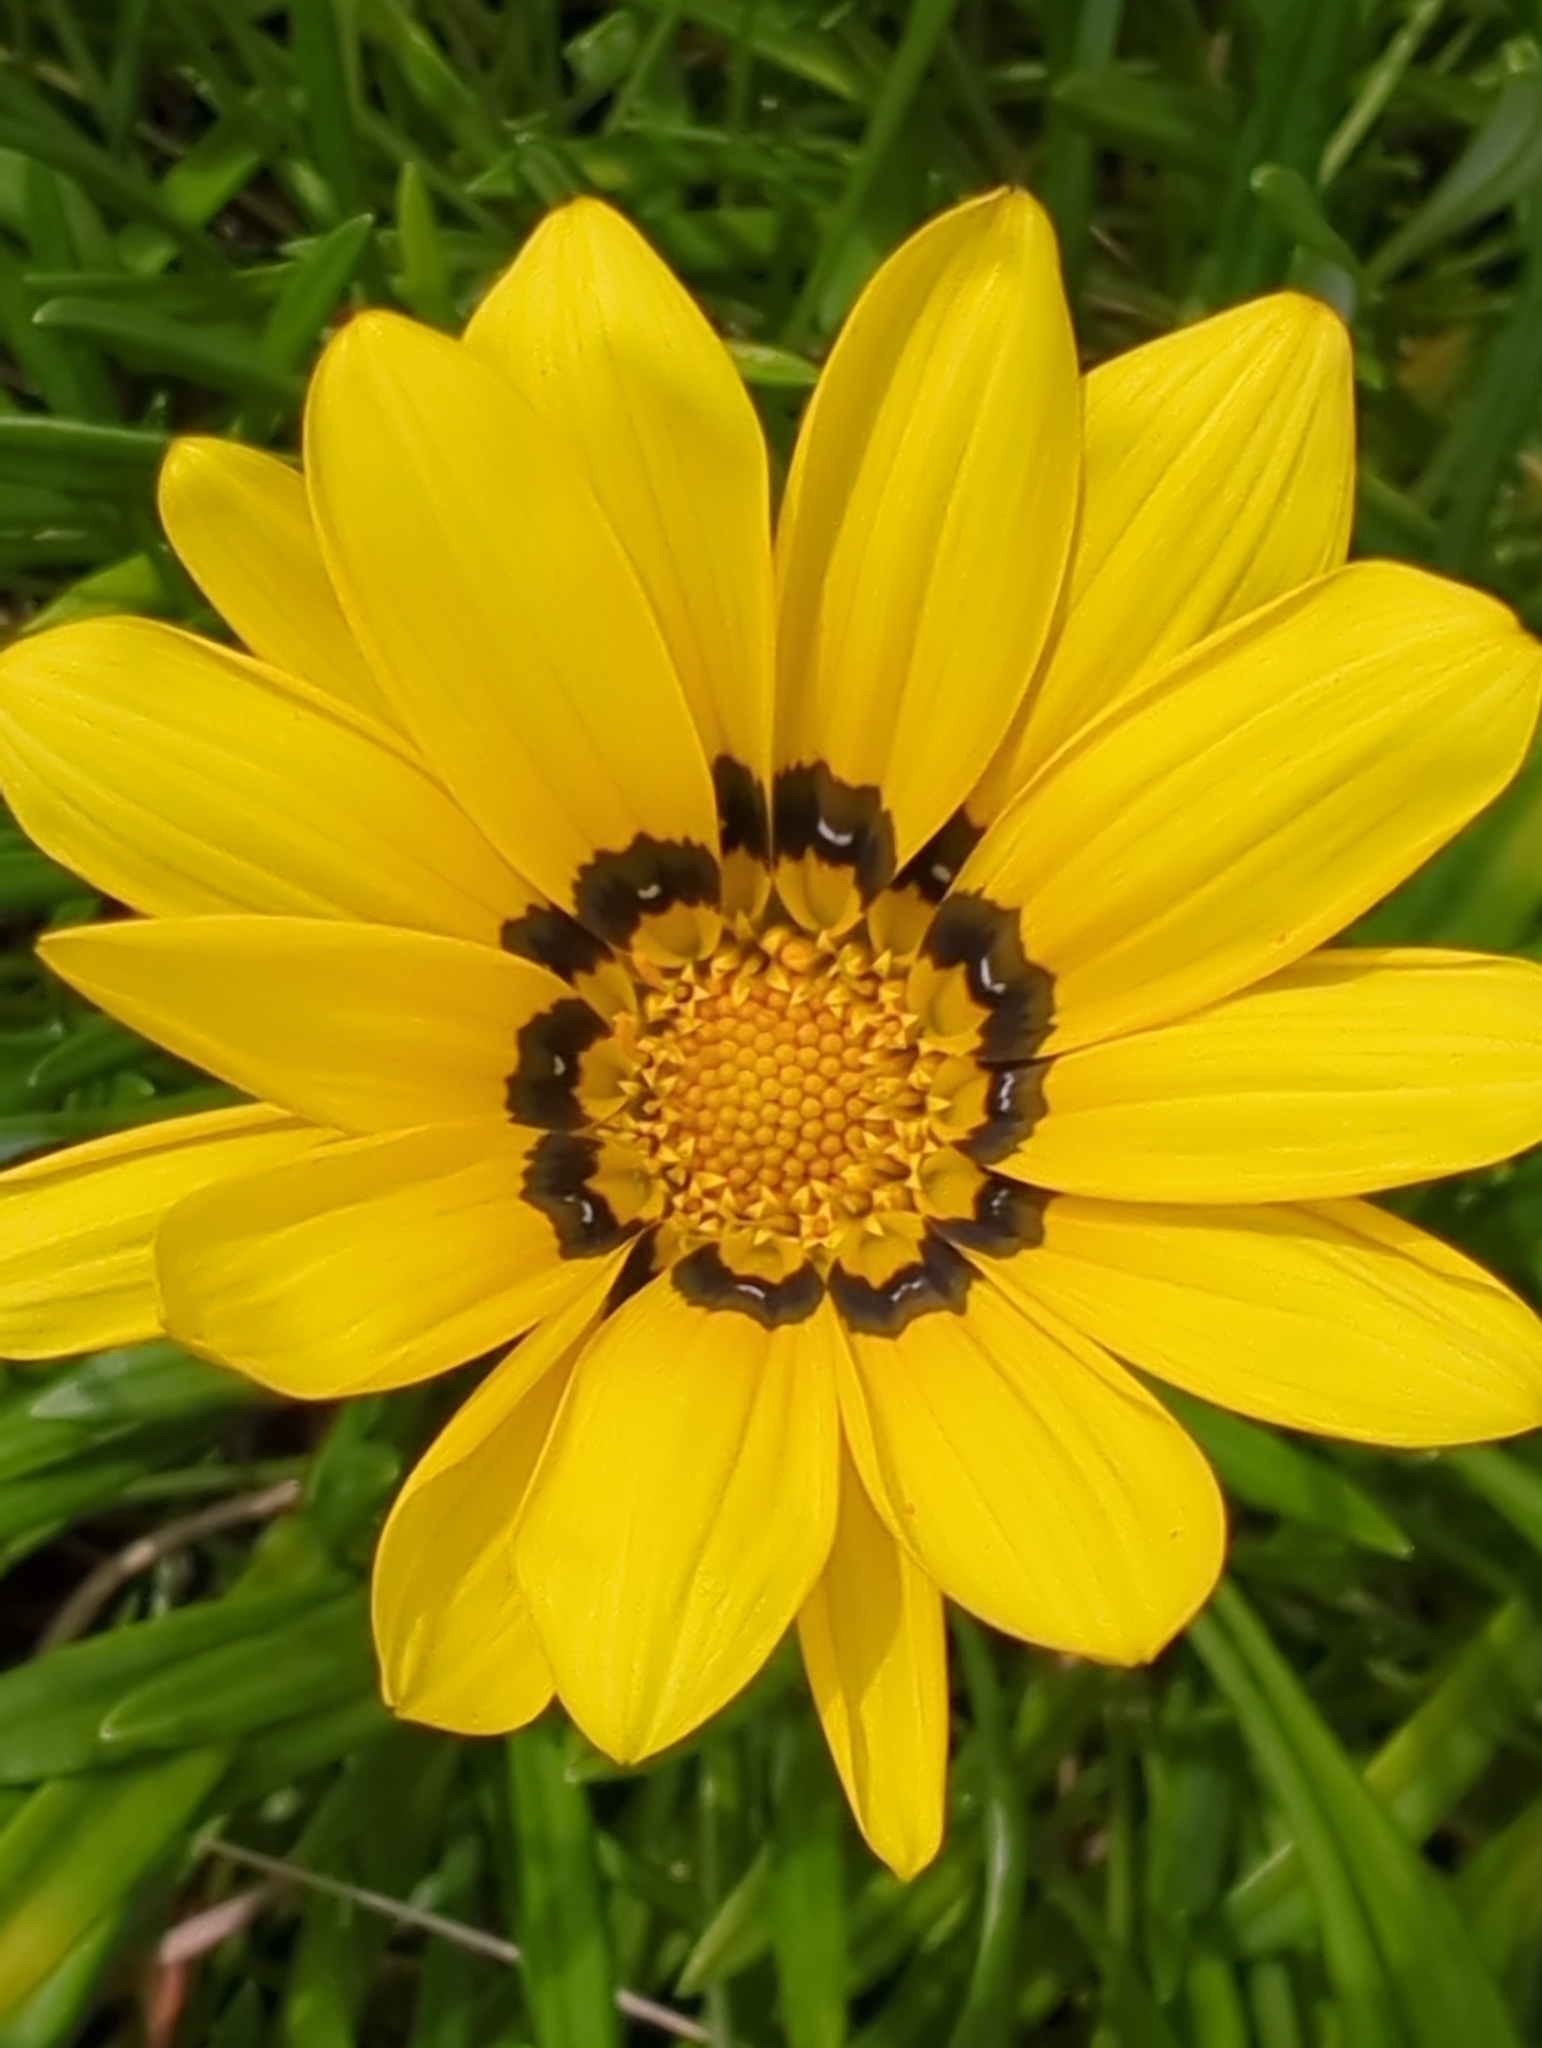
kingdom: Plantae
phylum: Tracheophyta
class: Magnoliopsida
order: Asterales
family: Asteraceae
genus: Gazania
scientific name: Gazania splendens
